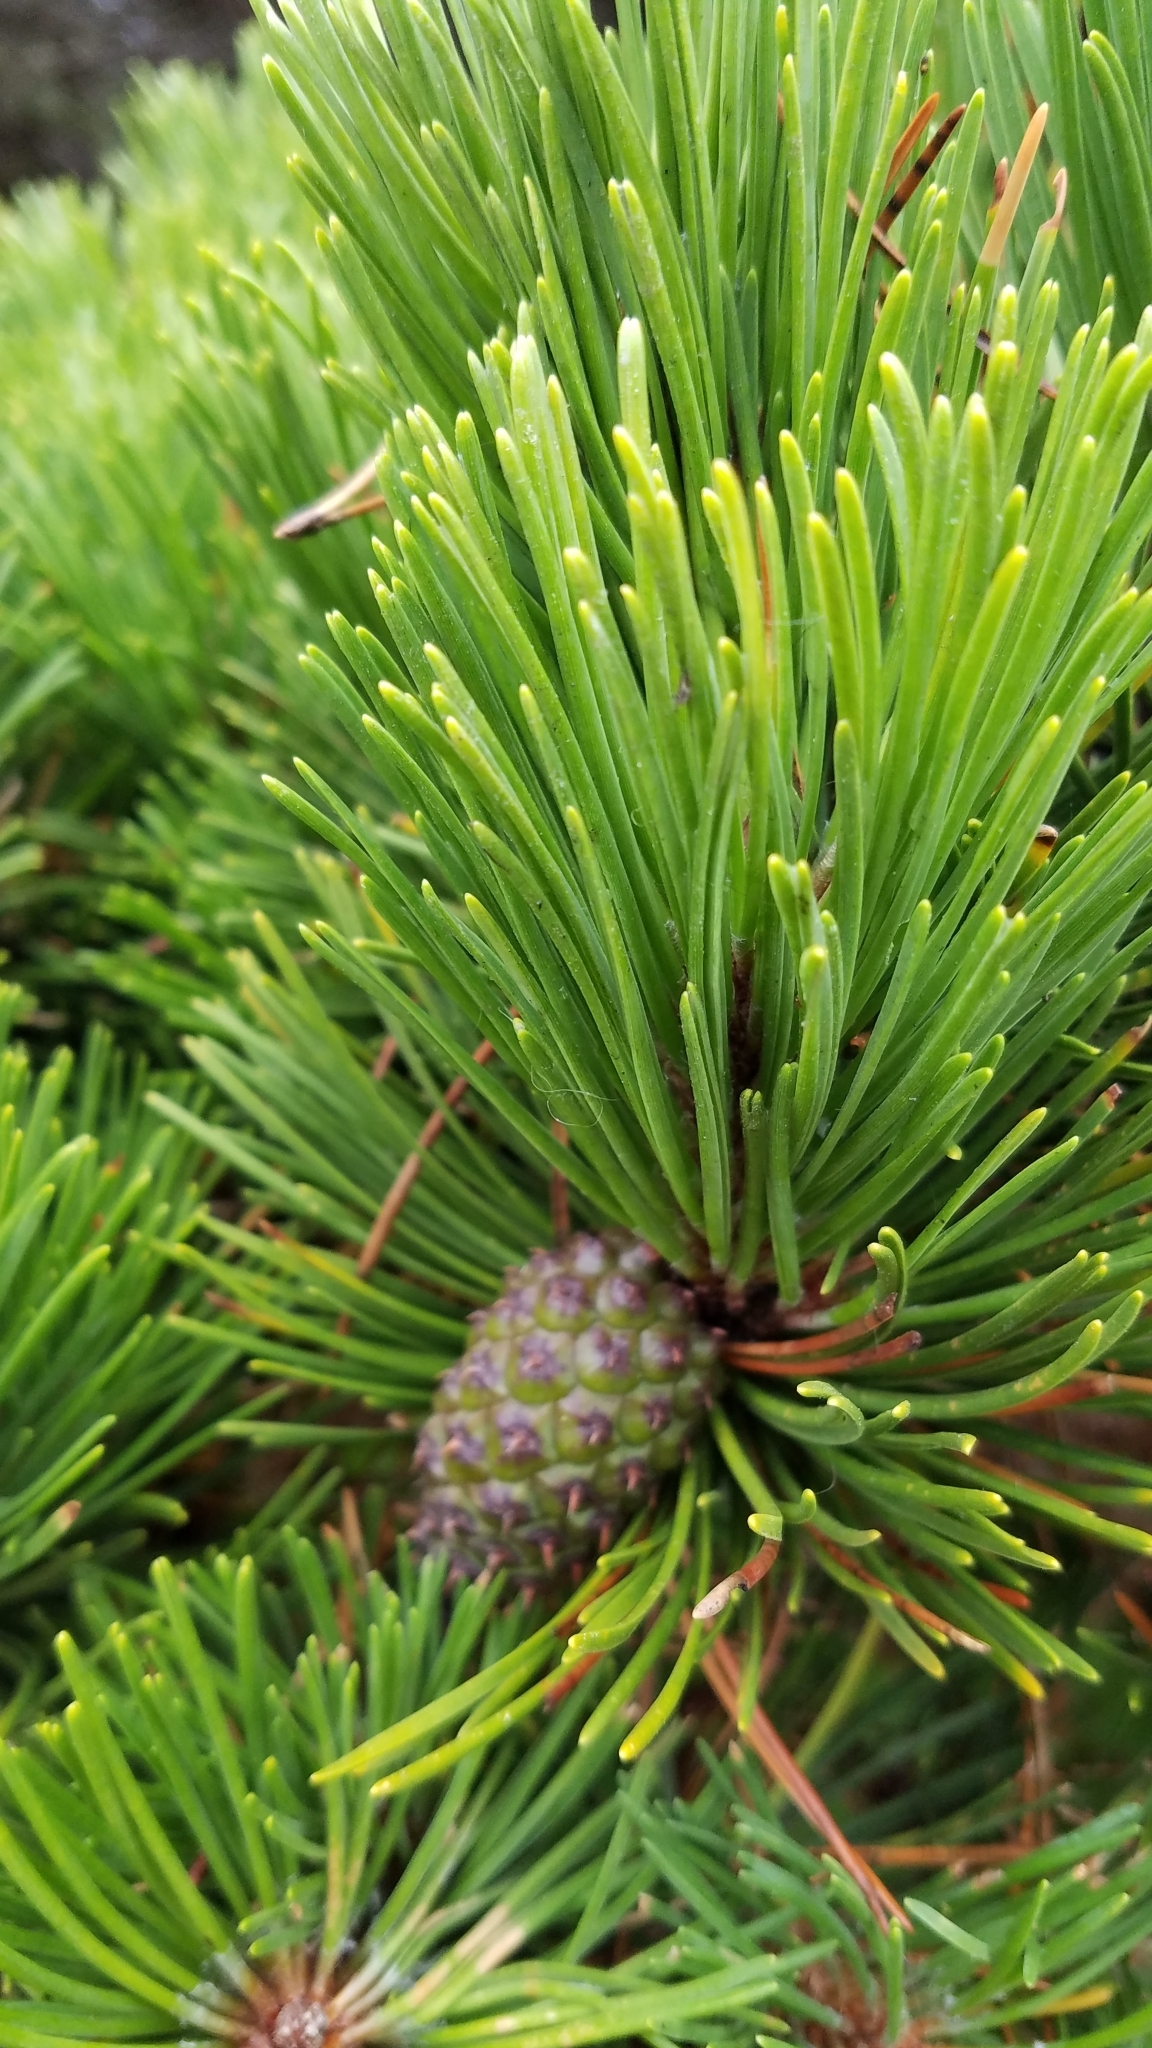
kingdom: Plantae
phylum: Tracheophyta
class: Pinopsida
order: Pinales
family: Pinaceae
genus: Pinus
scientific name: Pinus contorta
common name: Lodgepole pine
